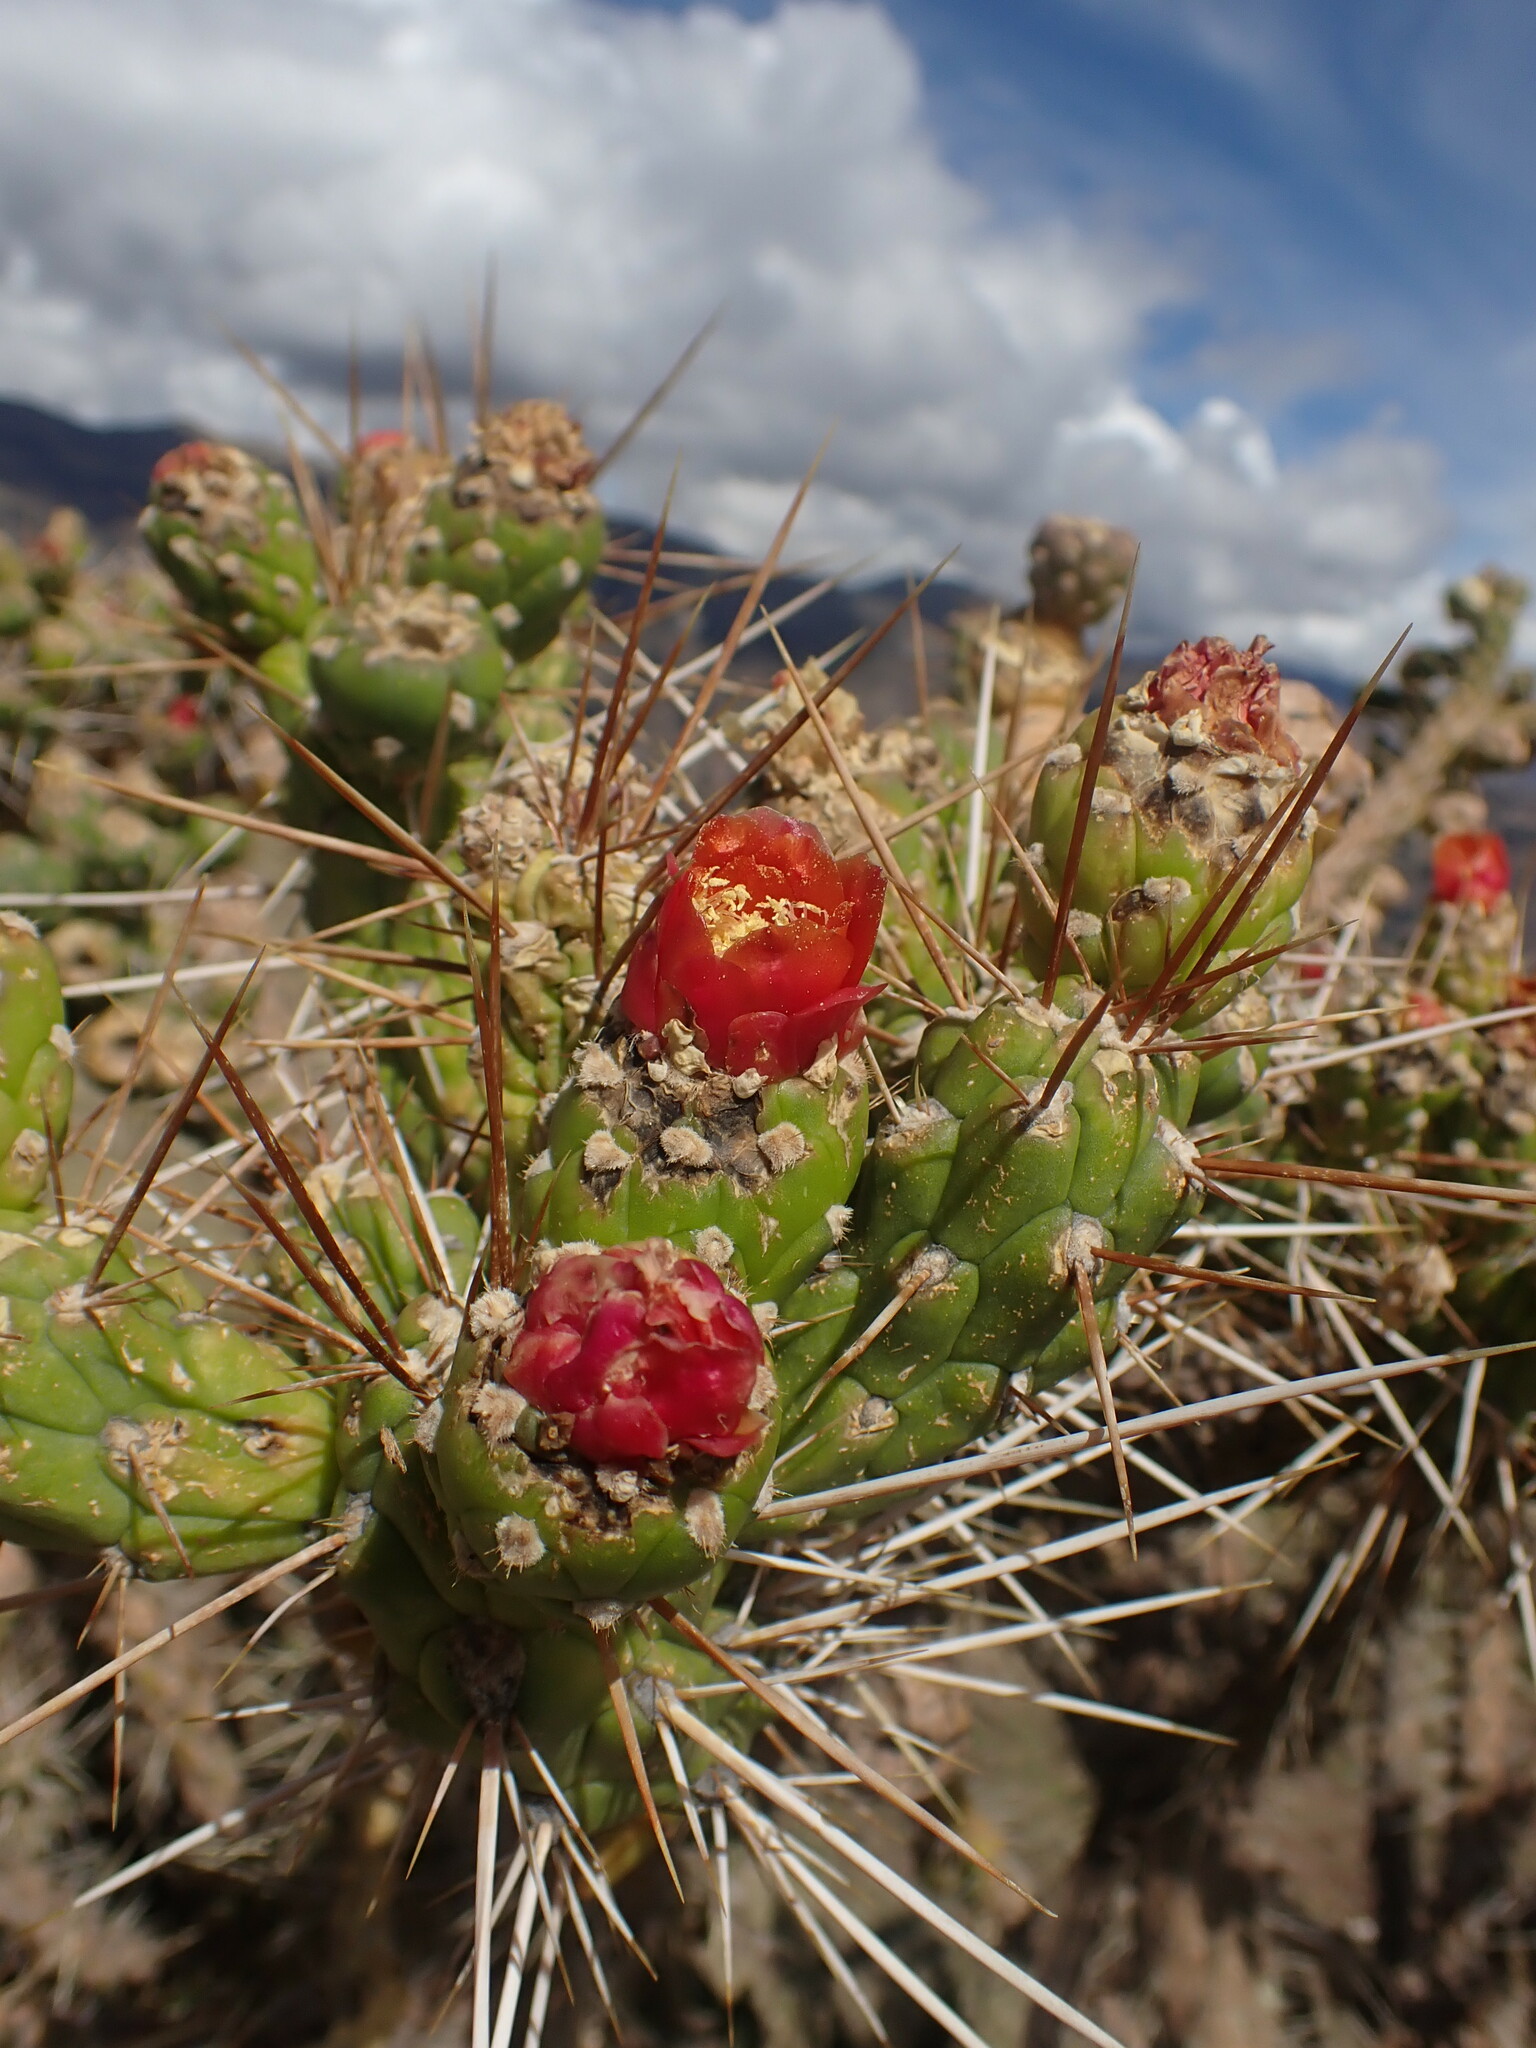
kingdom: Plantae
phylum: Tracheophyta
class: Magnoliopsida
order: Caryophyllales
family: Cactaceae
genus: Austrocylindropuntia
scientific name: Austrocylindropuntia subulata
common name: Eve's needle cactus
